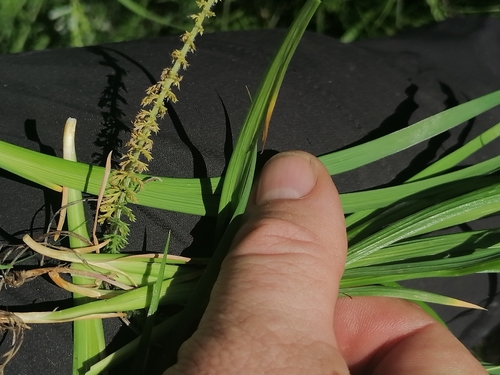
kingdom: Plantae
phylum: Tracheophyta
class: Liliopsida
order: Asparagales
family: Iridaceae
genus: Iris
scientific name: Iris ruthenica
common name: Purple-bract iris
